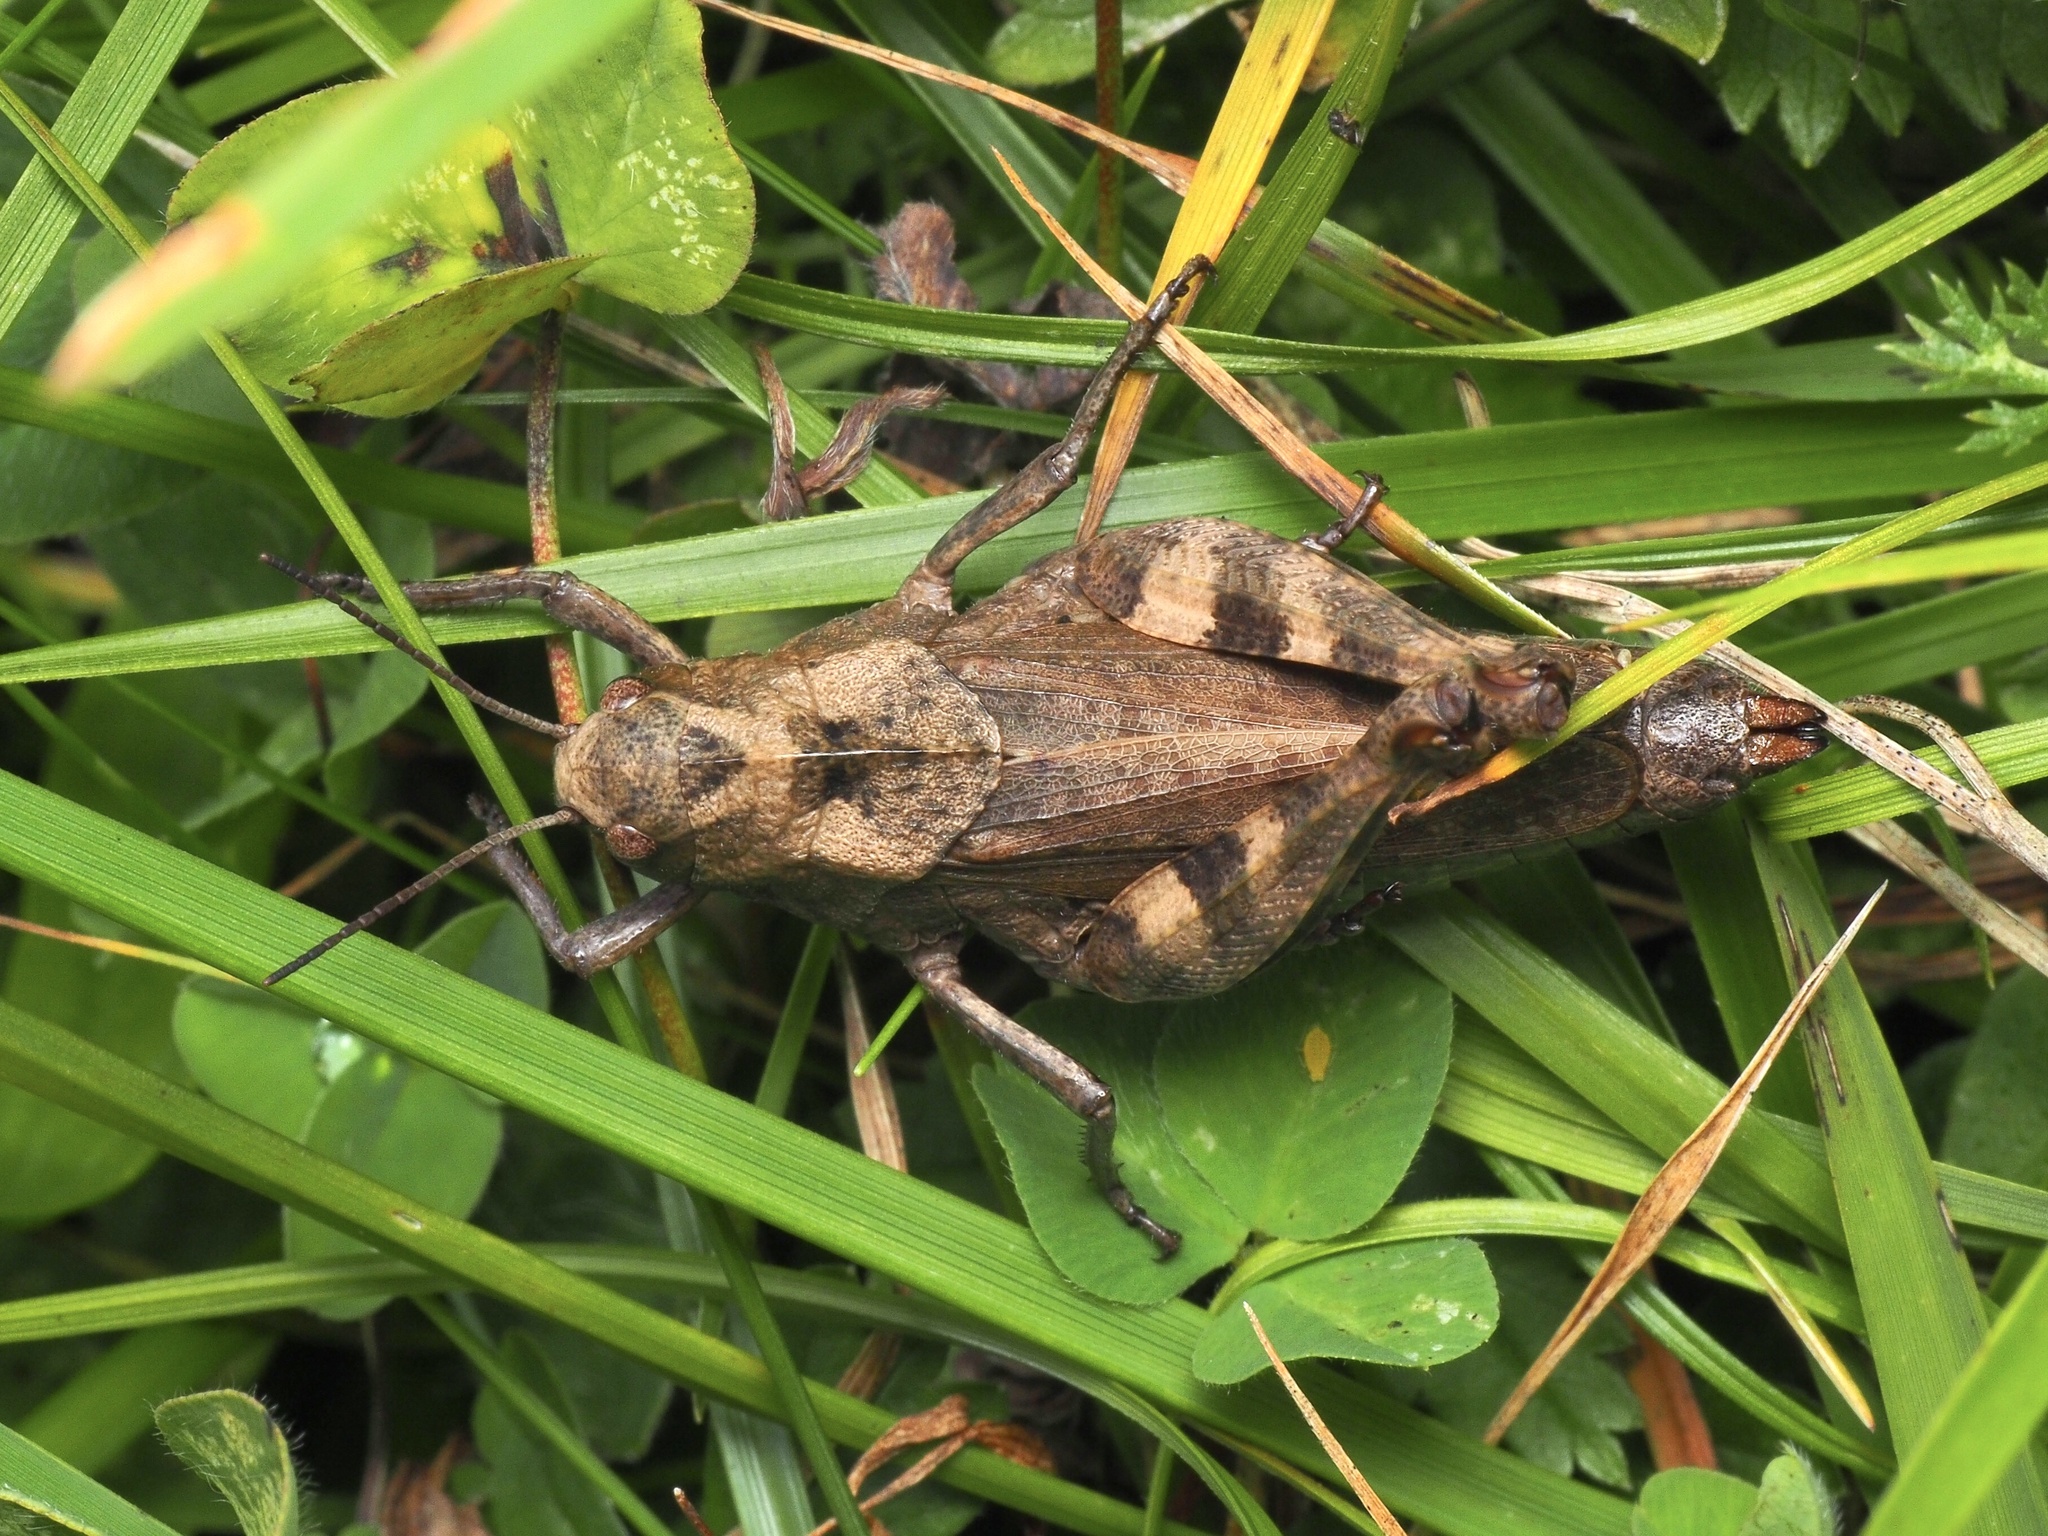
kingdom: Animalia
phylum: Arthropoda
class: Insecta
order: Orthoptera
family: Acrididae
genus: Psophus
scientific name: Psophus stridulus
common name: Rattle grasshopper
